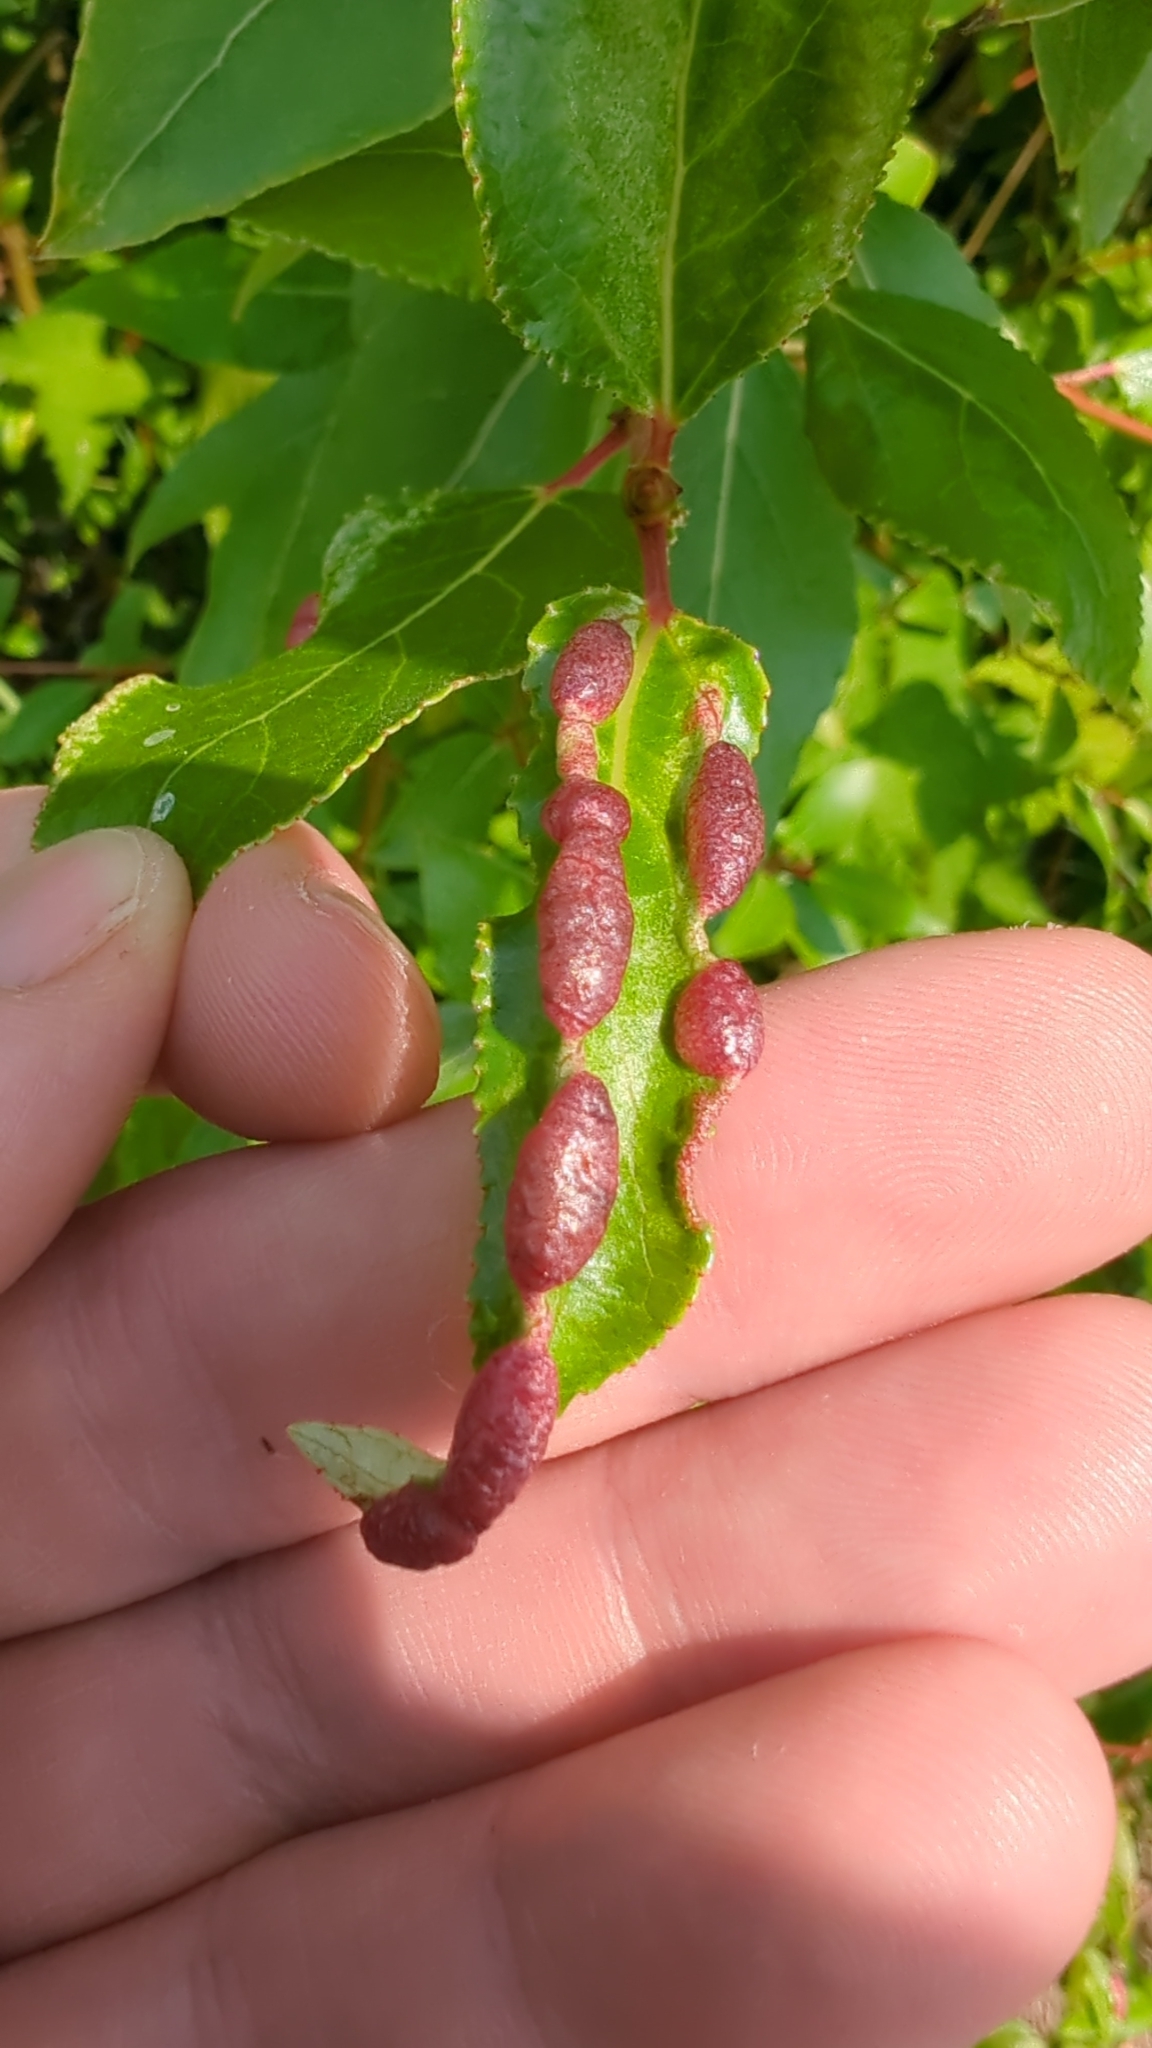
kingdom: Animalia
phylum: Arthropoda
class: Insecta
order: Hemiptera
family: Aphididae
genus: Thecabius
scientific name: Thecabius populimonilis
